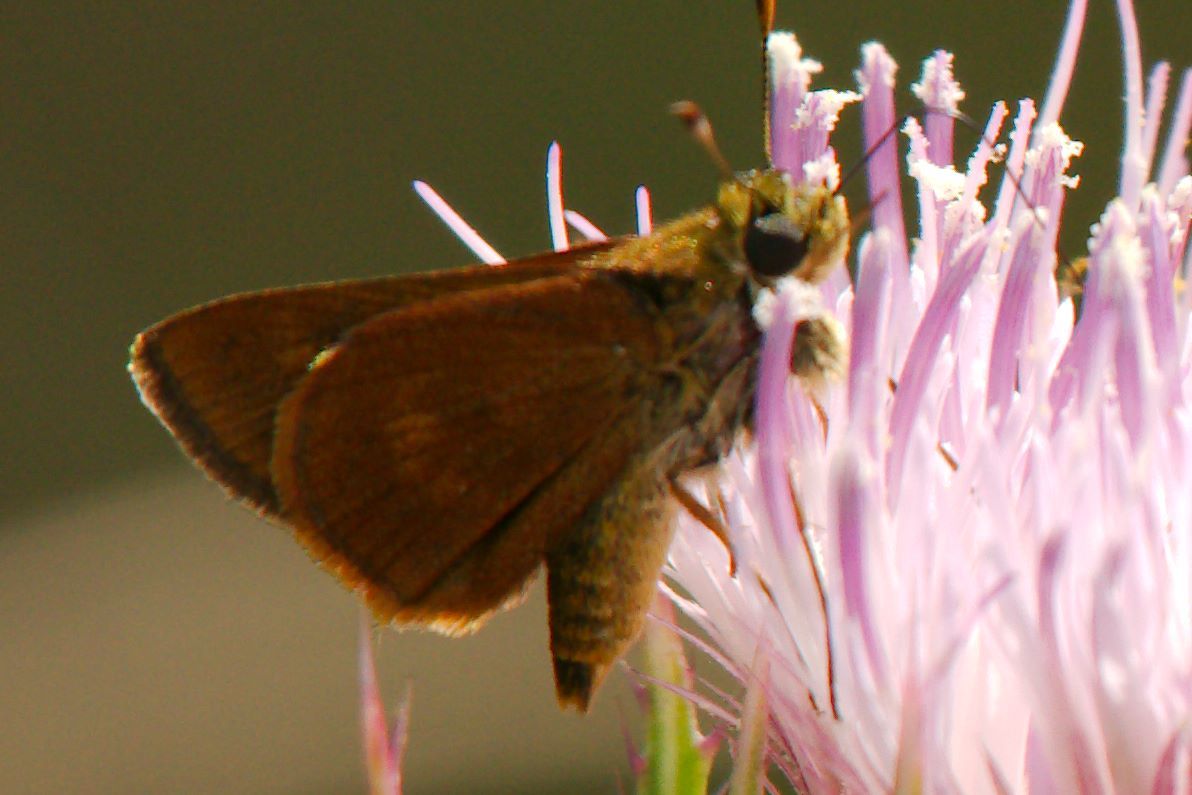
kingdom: Animalia
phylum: Arthropoda
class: Insecta
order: Lepidoptera
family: Hesperiidae
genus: Polites
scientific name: Polites otho
